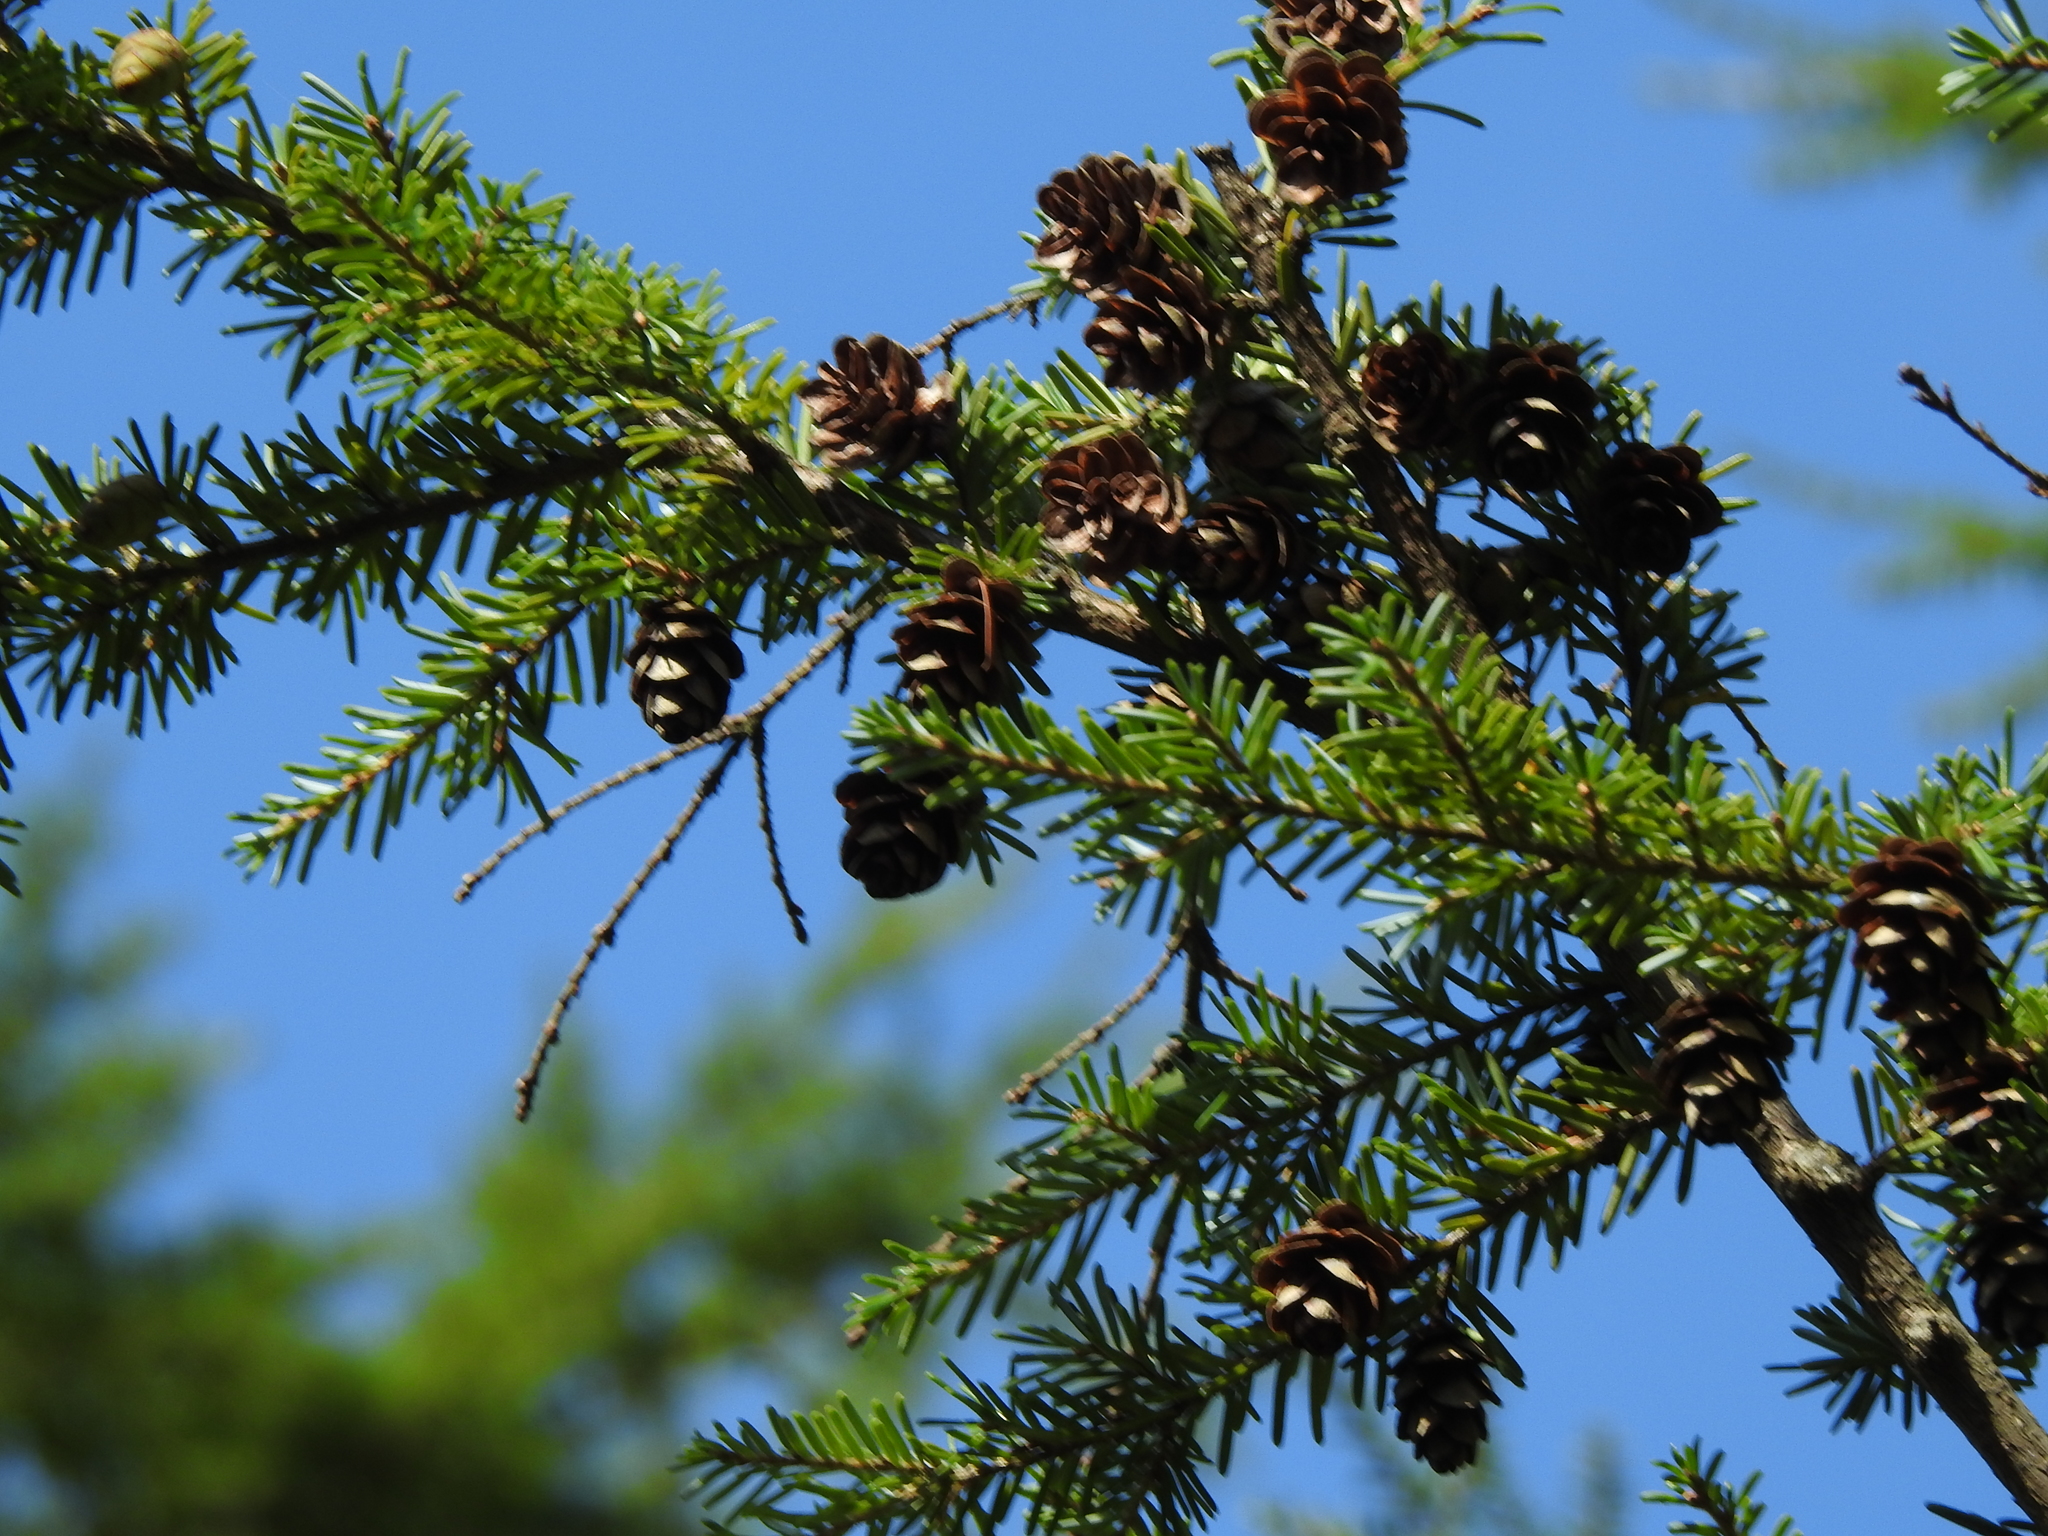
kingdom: Plantae
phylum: Tracheophyta
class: Pinopsida
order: Pinales
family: Pinaceae
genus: Tsuga
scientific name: Tsuga heterophylla
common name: Western hemlock
